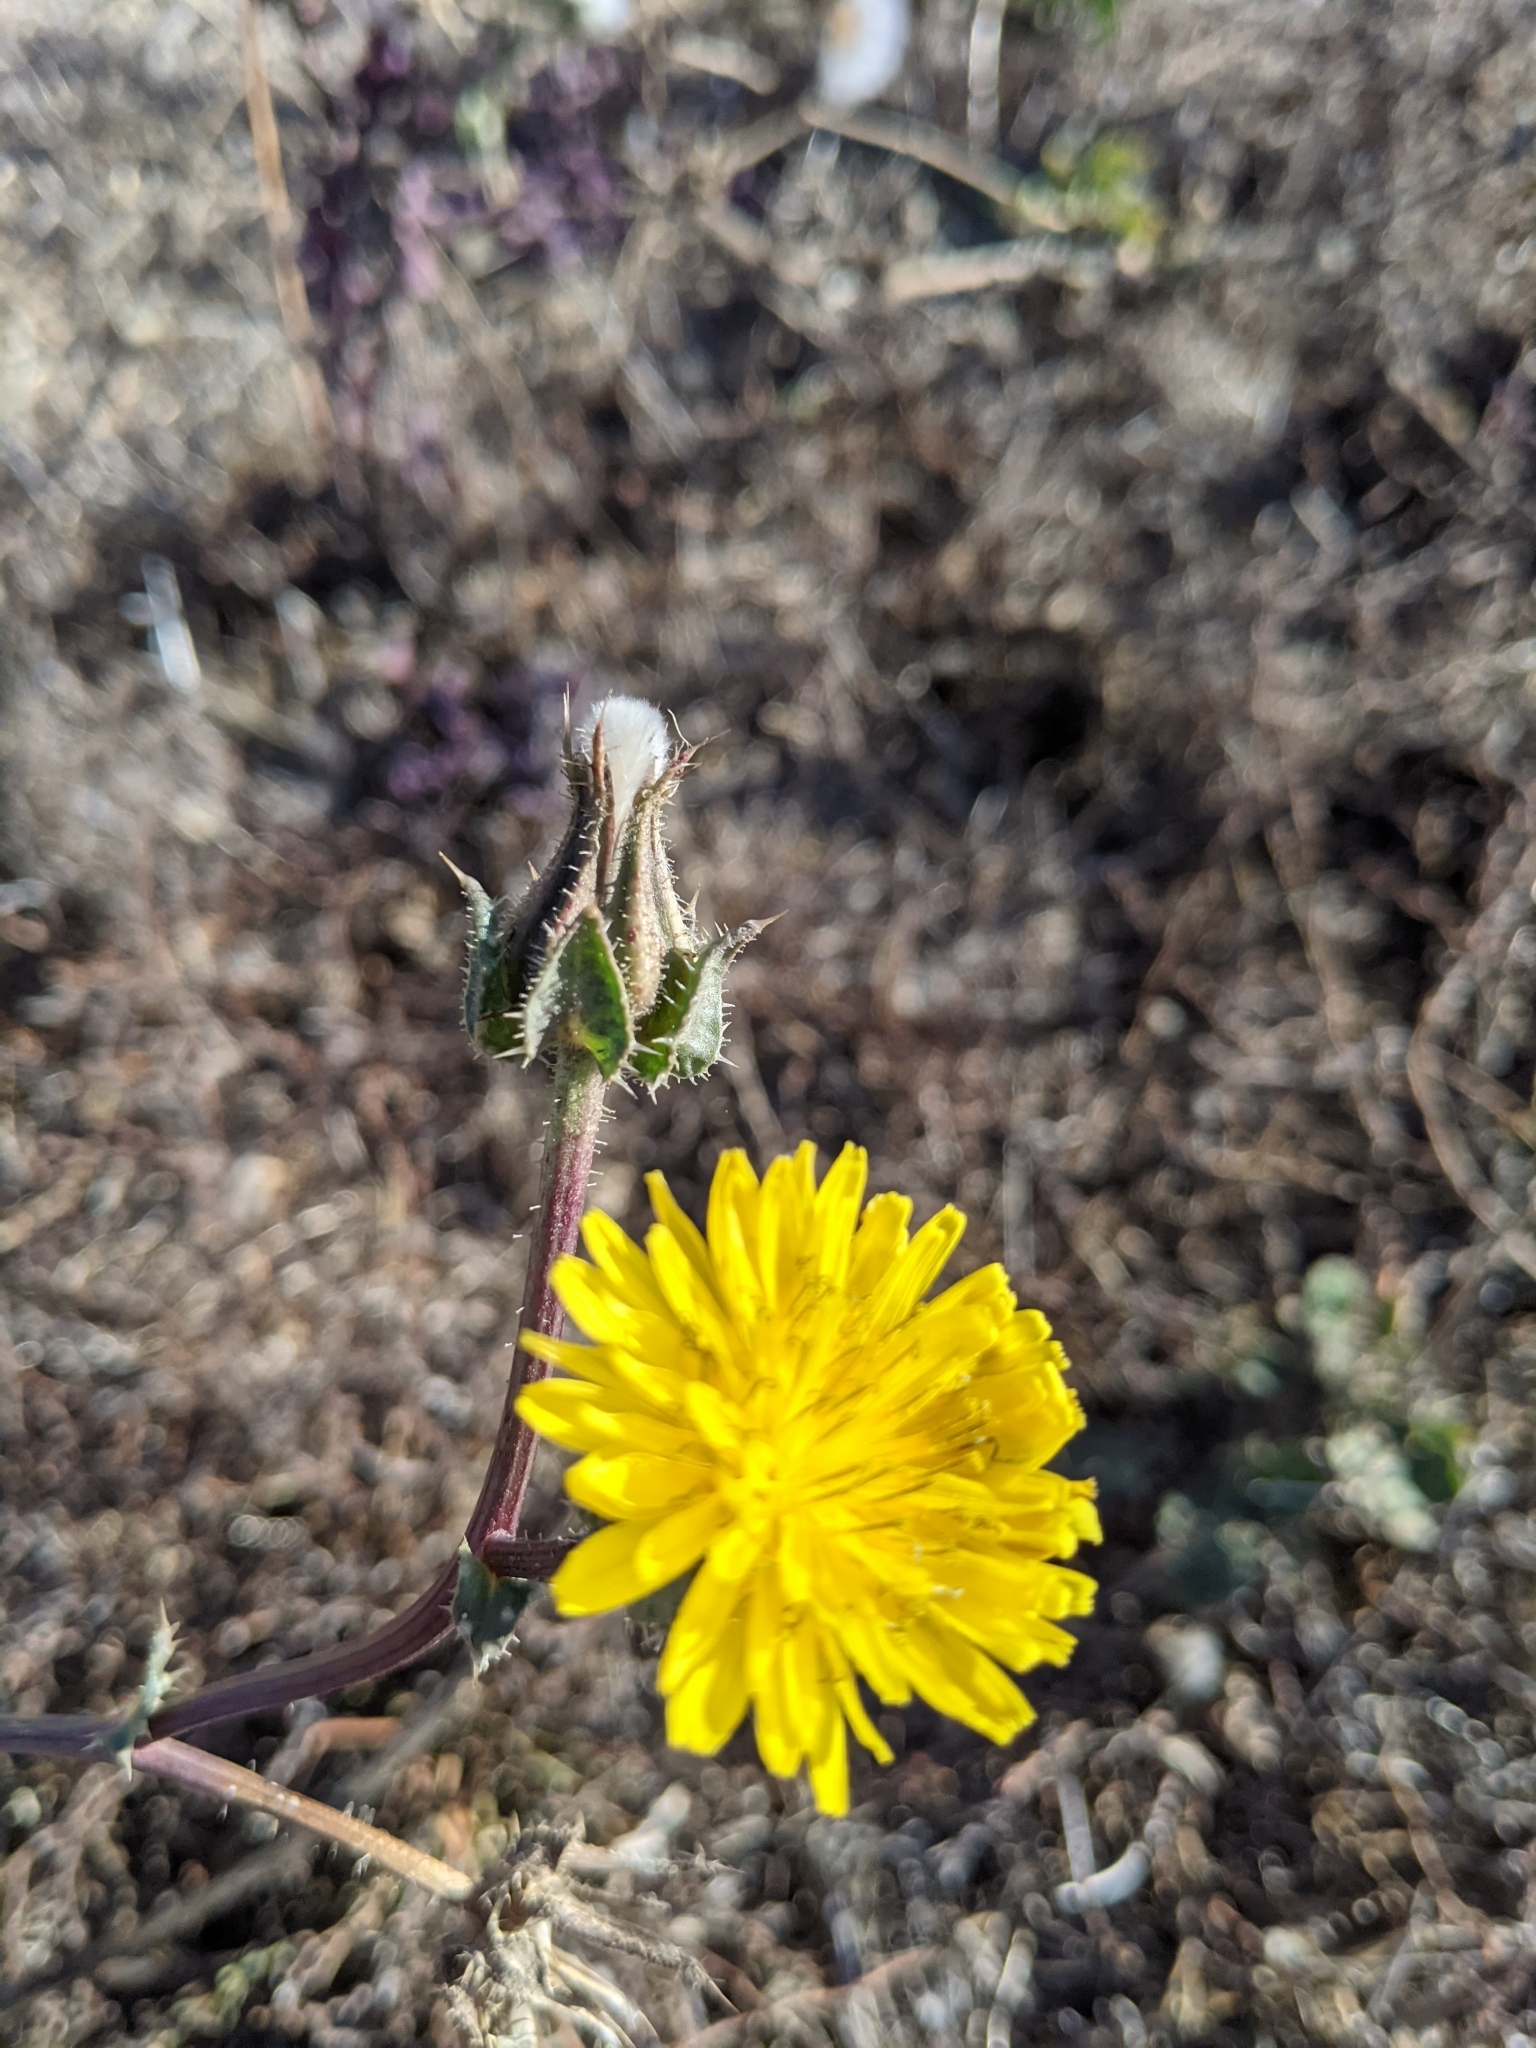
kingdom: Plantae
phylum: Tracheophyta
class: Magnoliopsida
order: Asterales
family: Asteraceae
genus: Helminthotheca
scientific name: Helminthotheca echioides
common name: Ox-tongue
